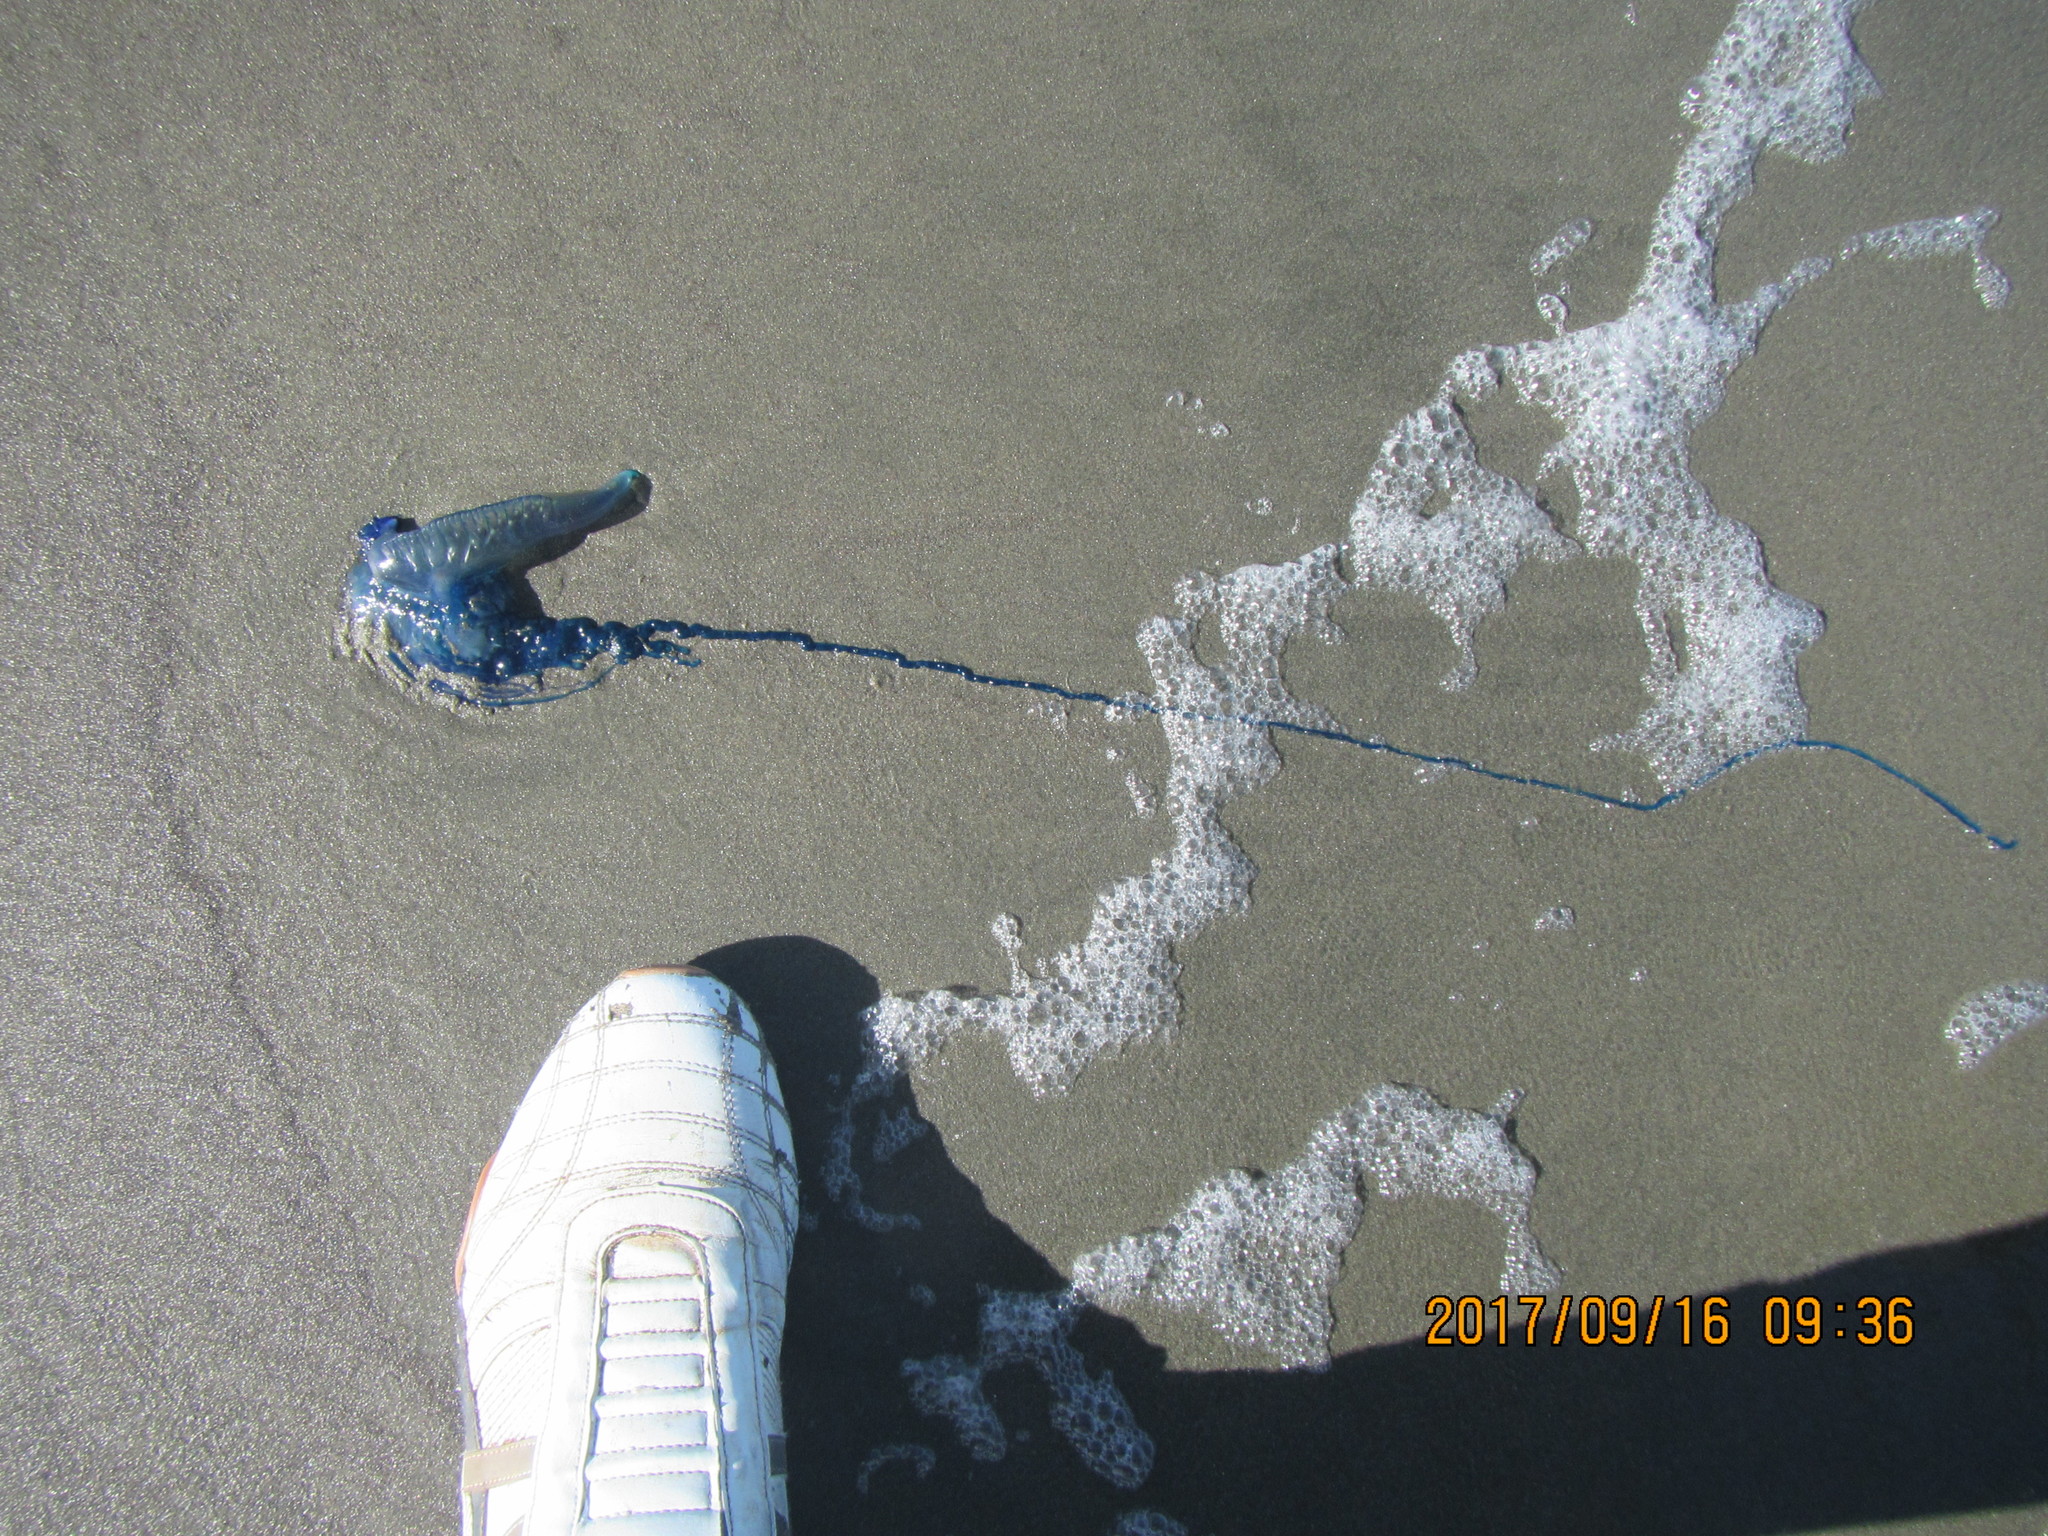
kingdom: Animalia
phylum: Cnidaria
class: Hydrozoa
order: Siphonophorae
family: Physaliidae
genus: Physalia
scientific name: Physalia physalis
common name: Portuguese man-of-war
